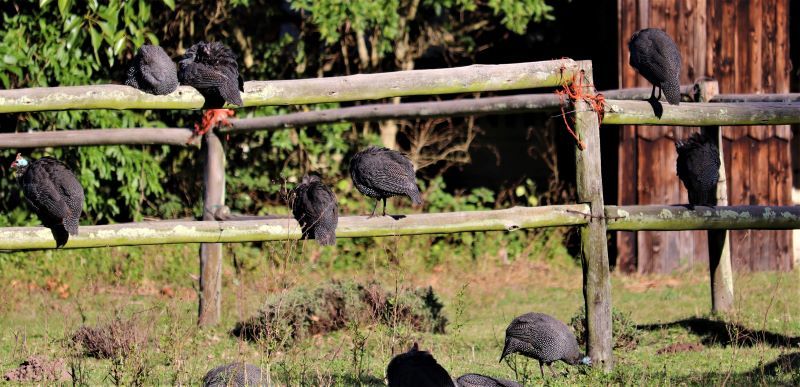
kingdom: Animalia
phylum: Chordata
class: Aves
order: Galliformes
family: Numididae
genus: Numida
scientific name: Numida meleagris
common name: Helmeted guineafowl
